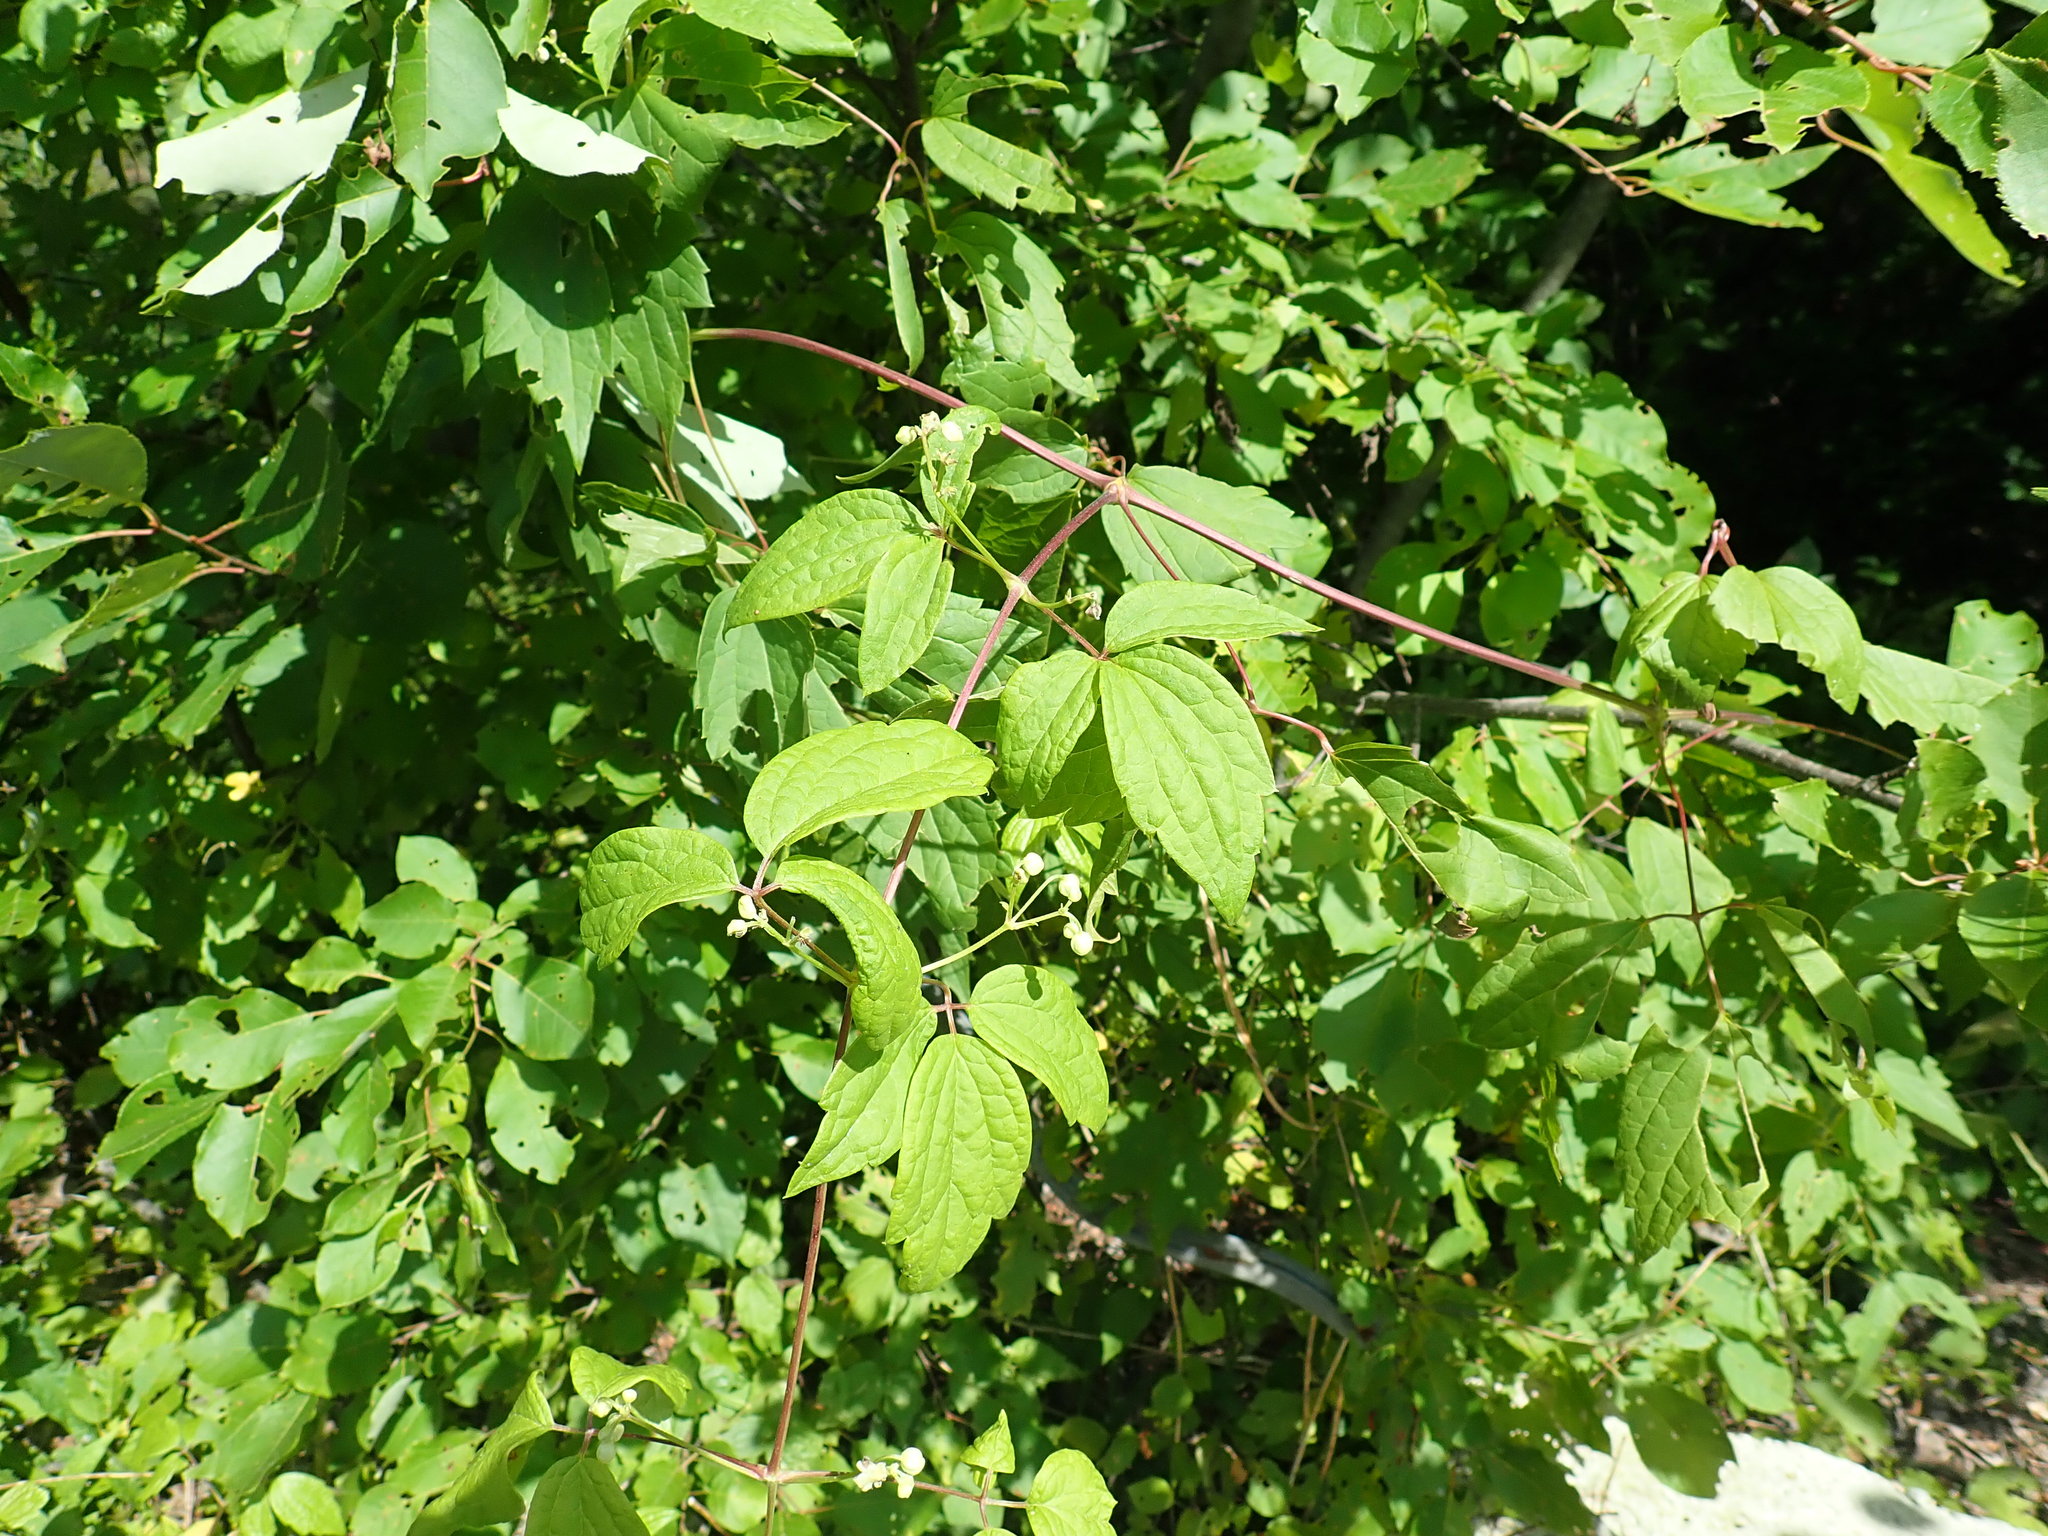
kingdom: Plantae
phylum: Tracheophyta
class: Magnoliopsida
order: Ranunculales
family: Ranunculaceae
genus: Clematis
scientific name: Clematis virginiana
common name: Virgin's-bower
